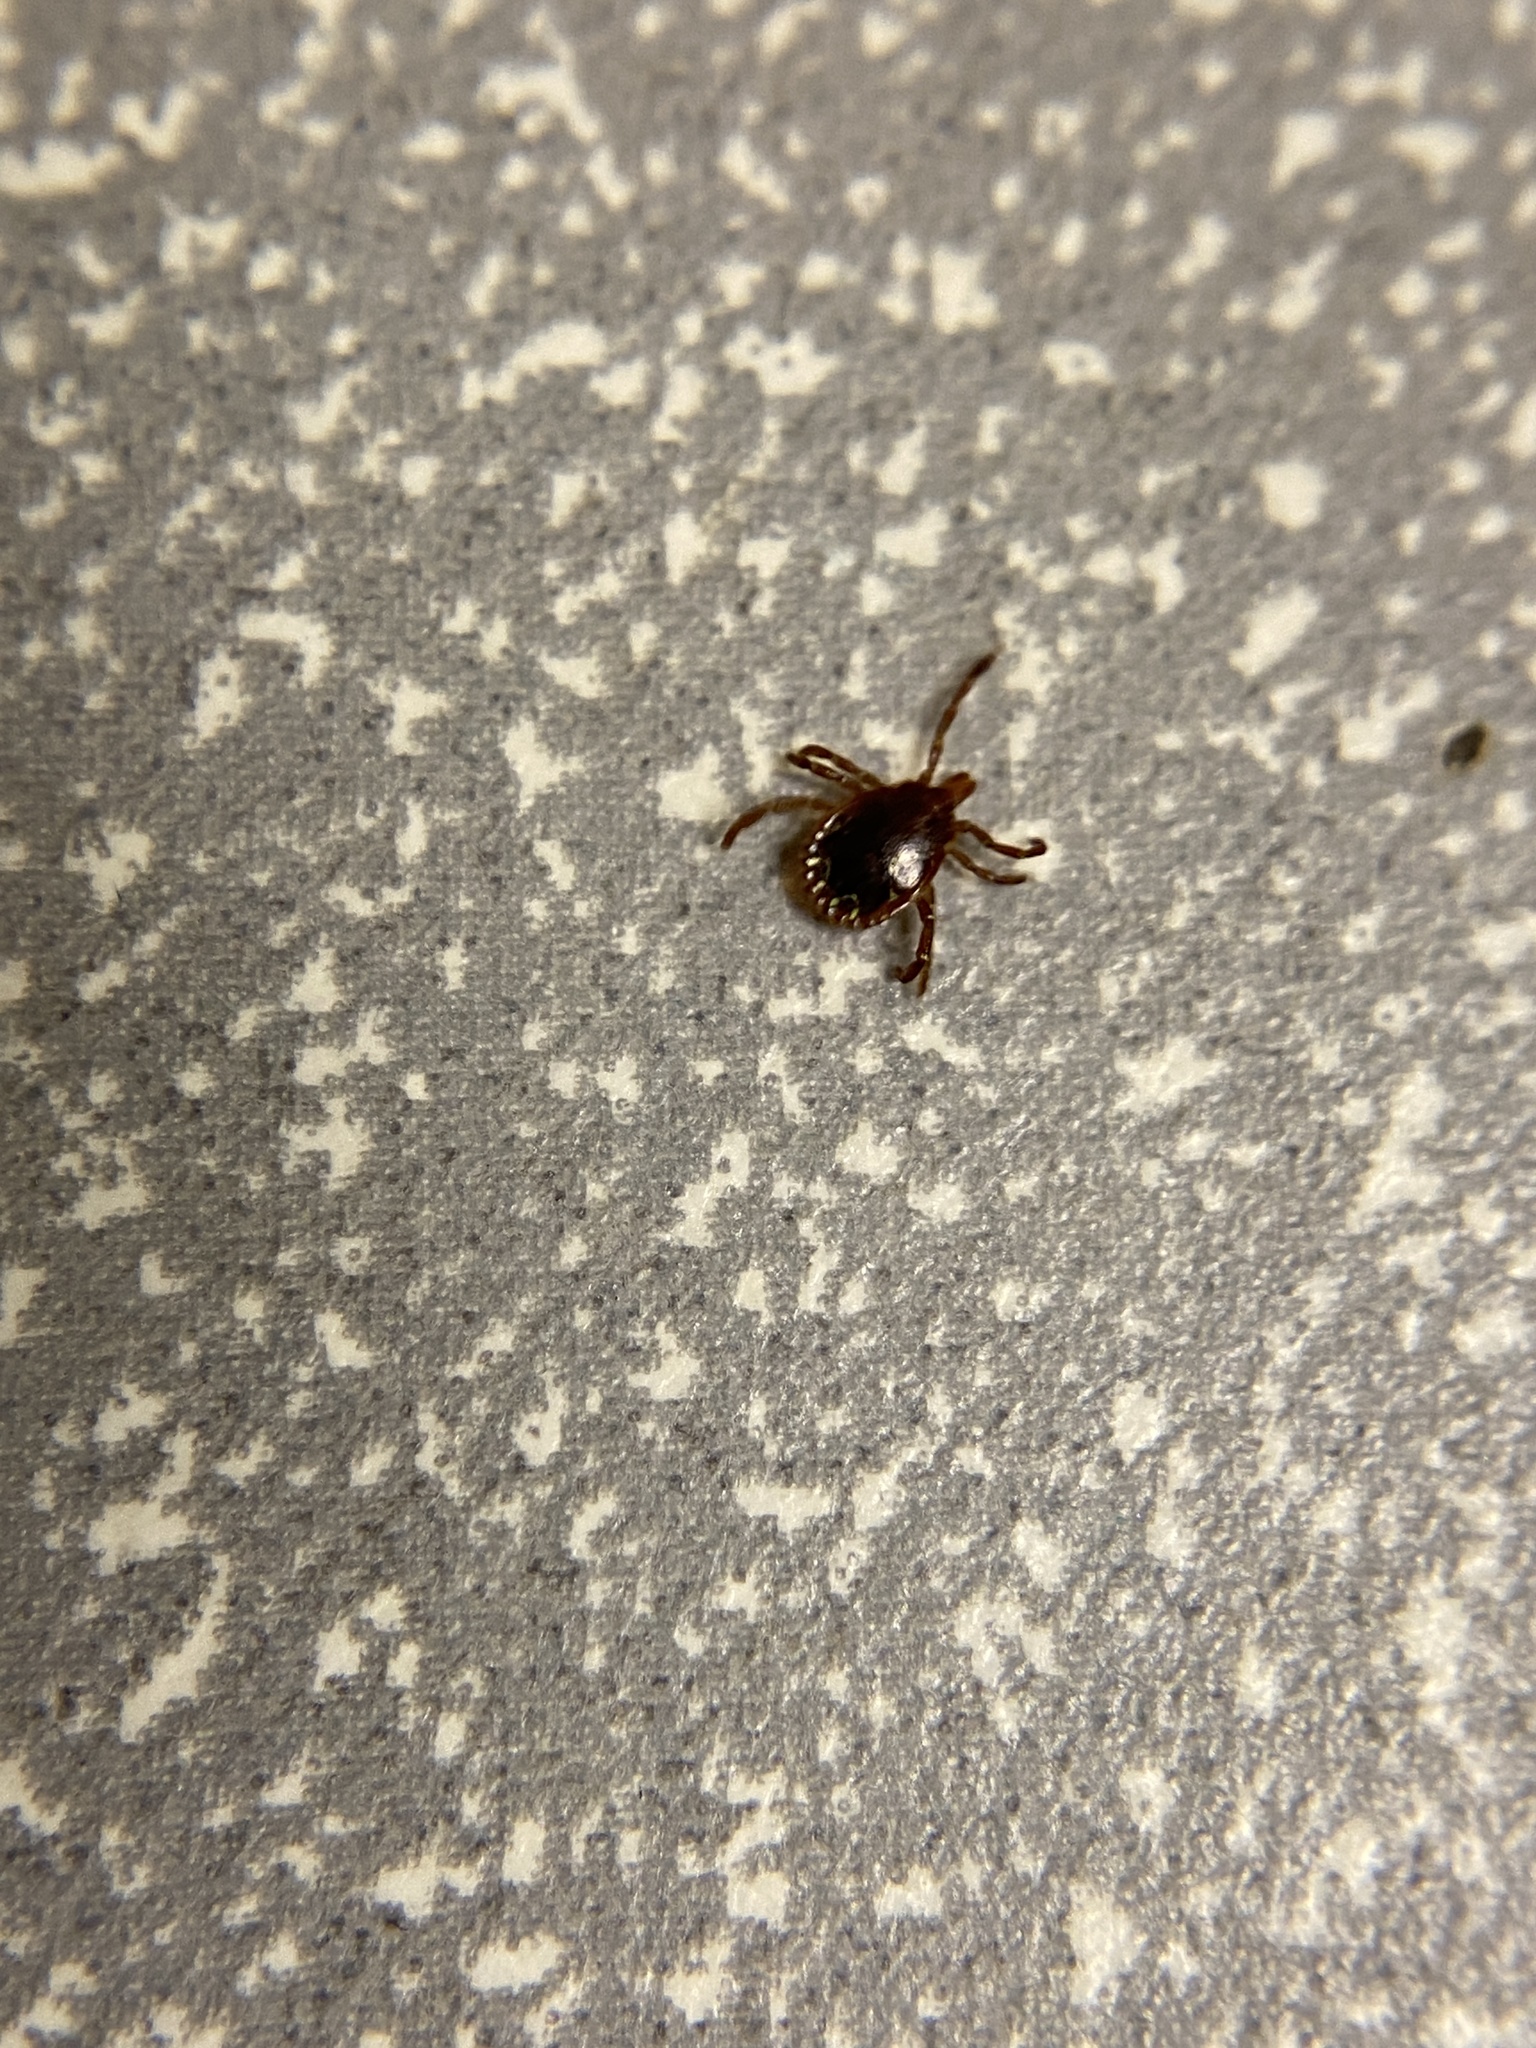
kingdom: Animalia
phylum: Arthropoda
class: Arachnida
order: Ixodida
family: Ixodidae
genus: Amblyomma
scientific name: Amblyomma americanum
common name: Lone star tick
